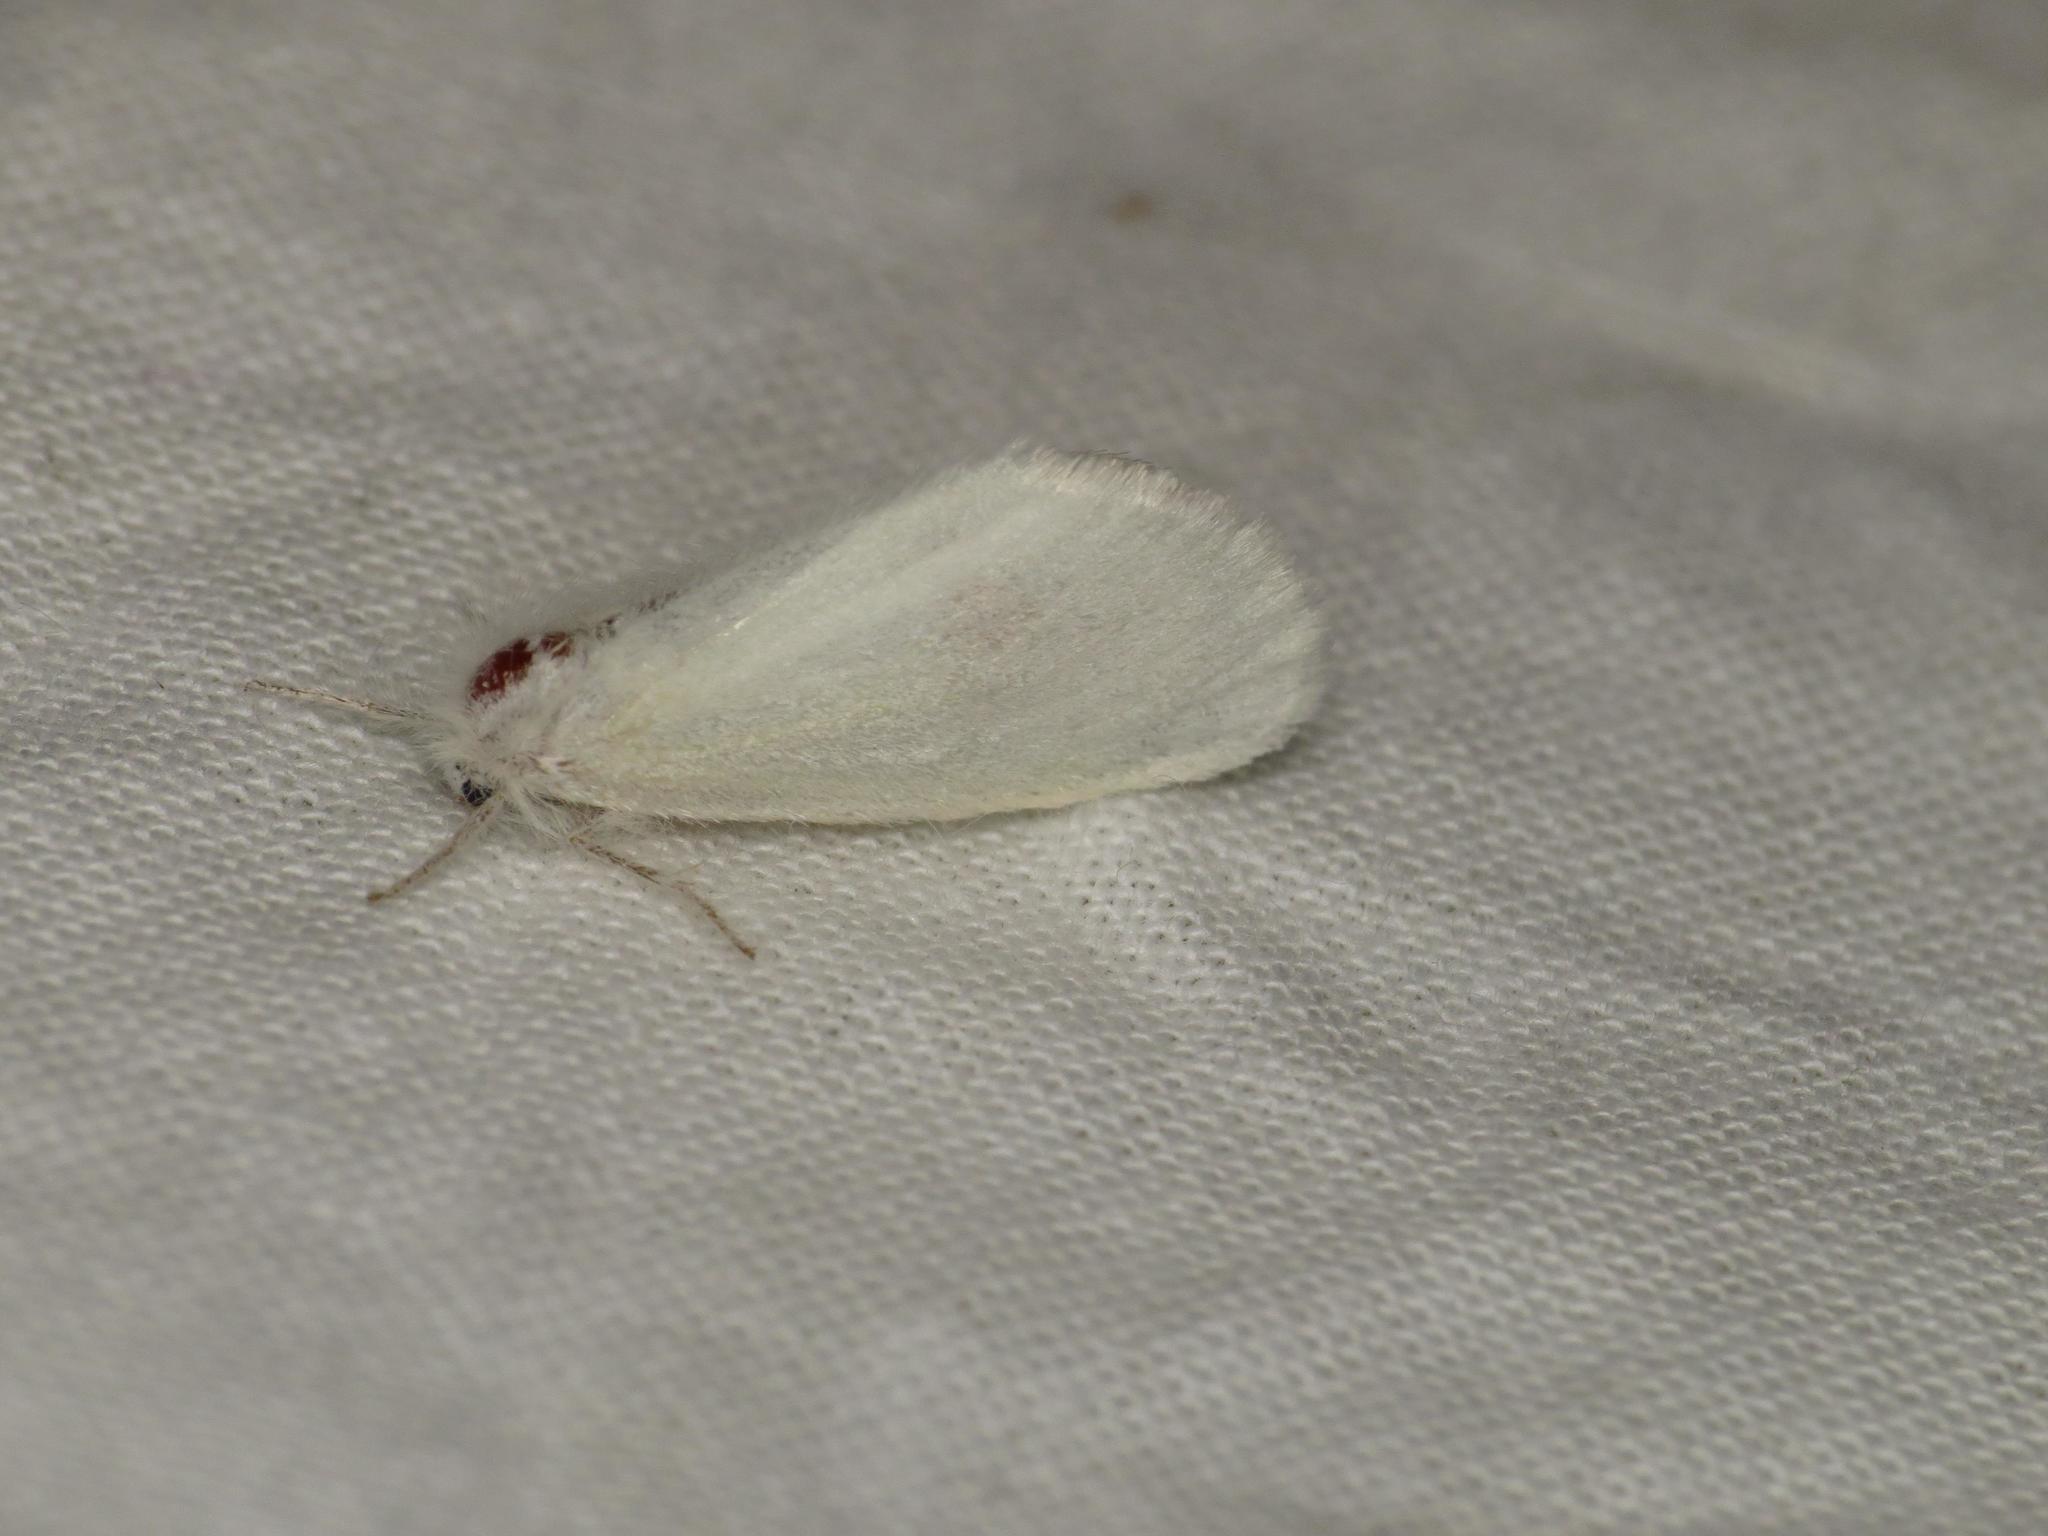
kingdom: Animalia
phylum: Arthropoda
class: Insecta
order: Lepidoptera
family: Erebidae
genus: Acyphas
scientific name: Acyphas chionitis
